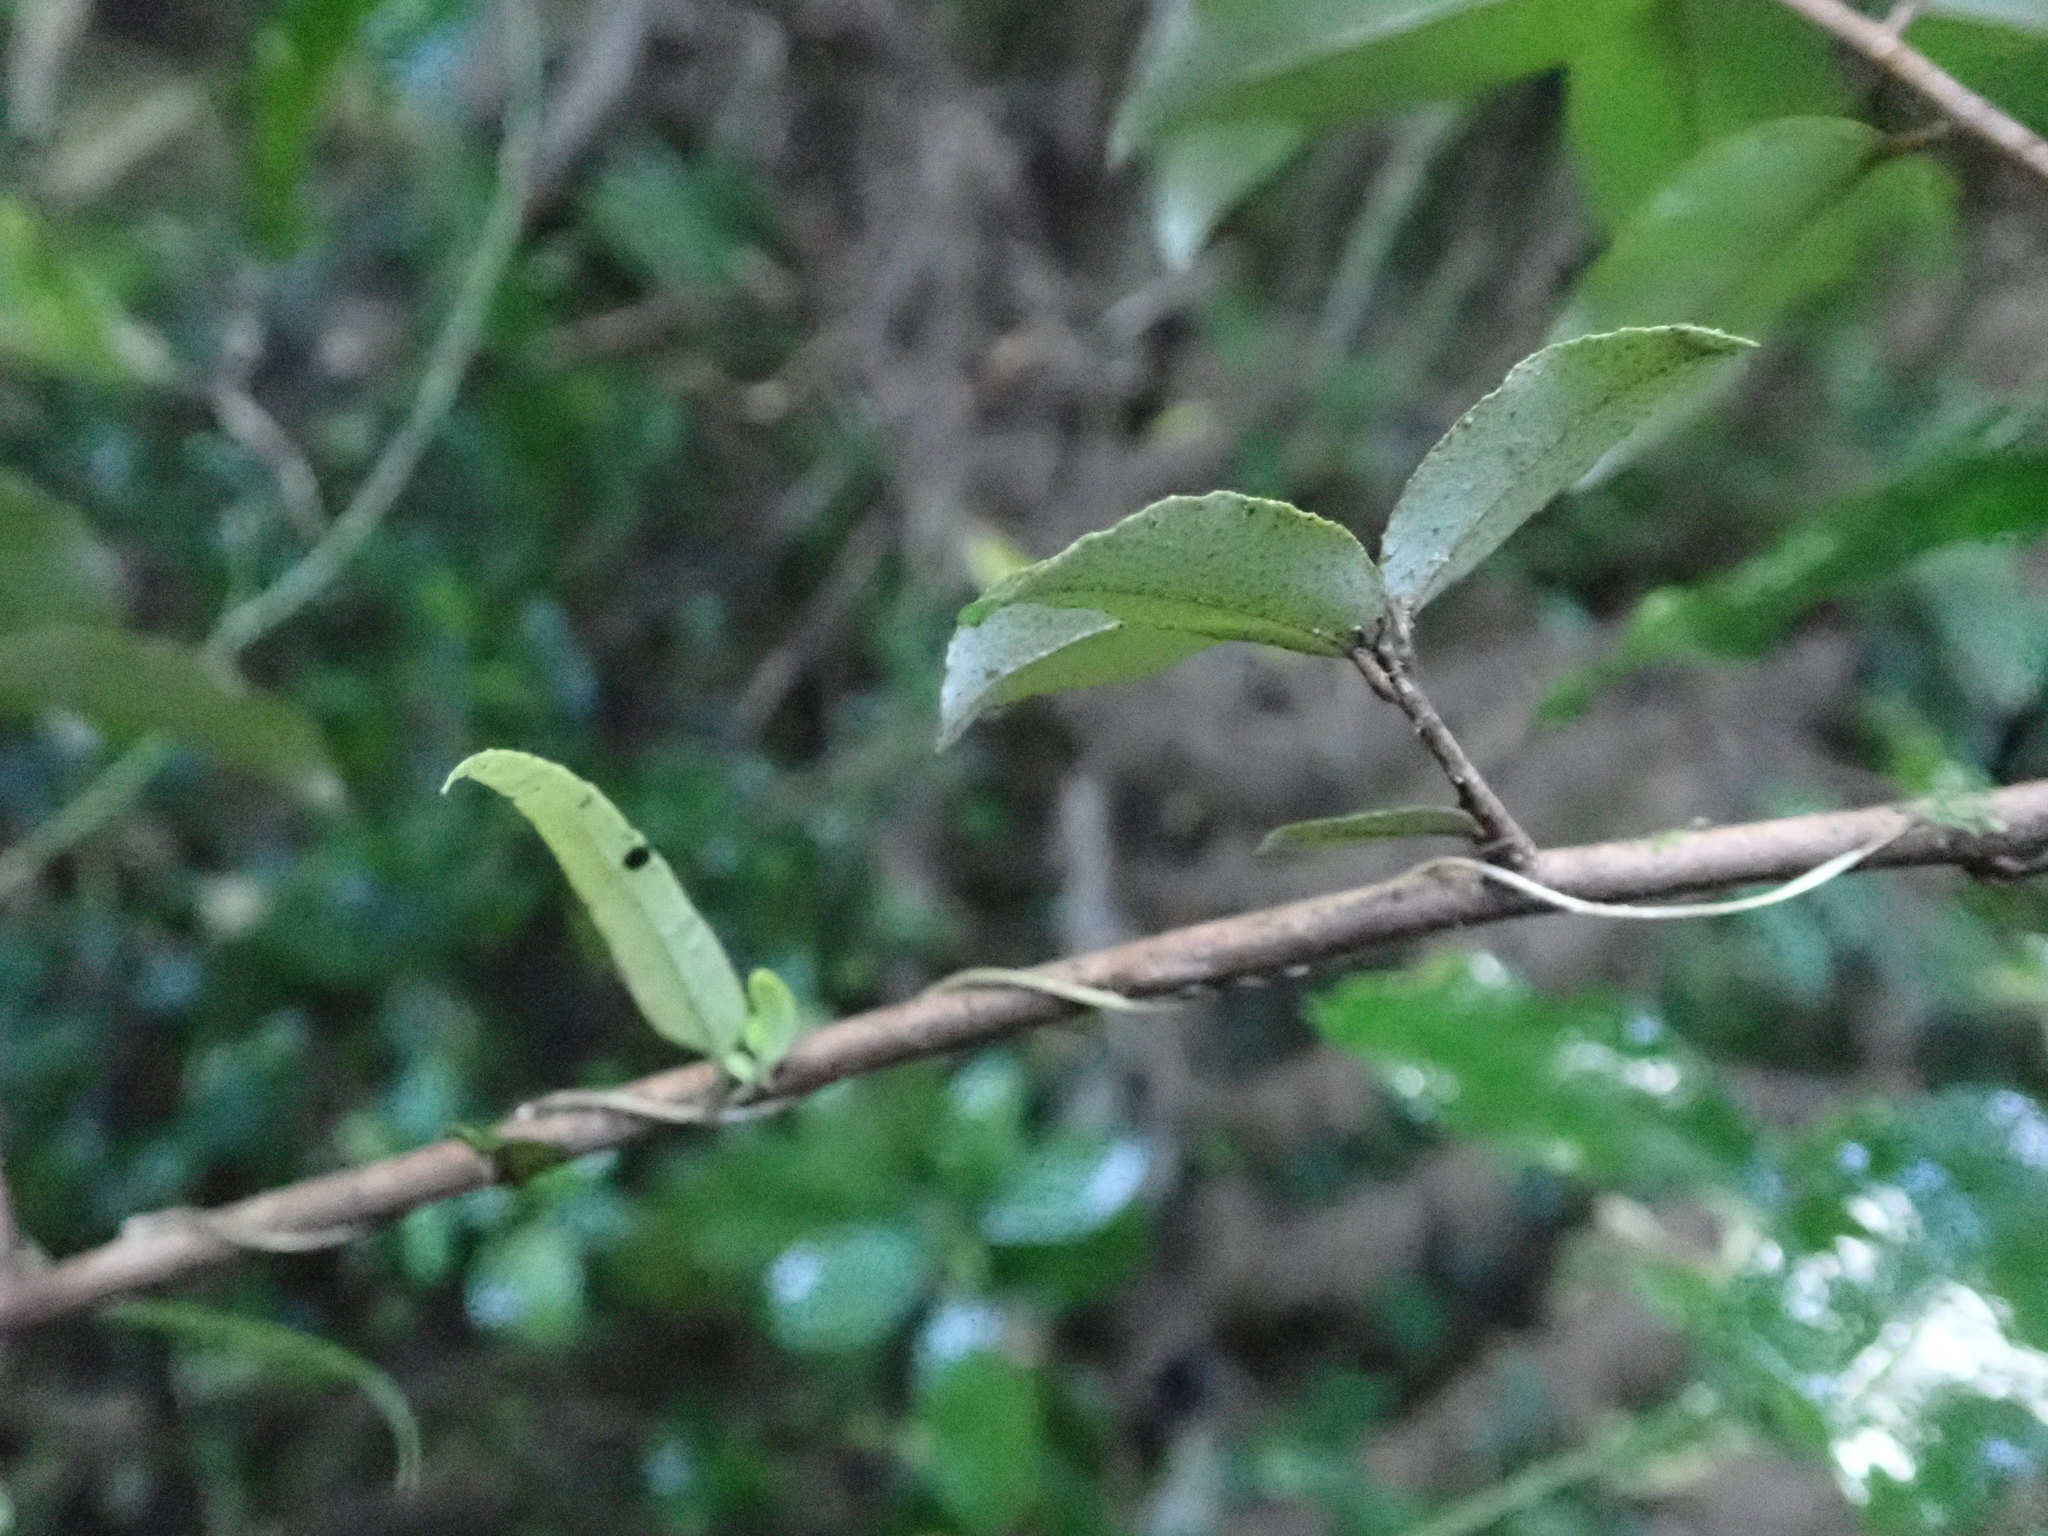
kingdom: Plantae
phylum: Tracheophyta
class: Magnoliopsida
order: Rosales
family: Elaeagnaceae
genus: Elaeagnus
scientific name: Elaeagnus reflexa
